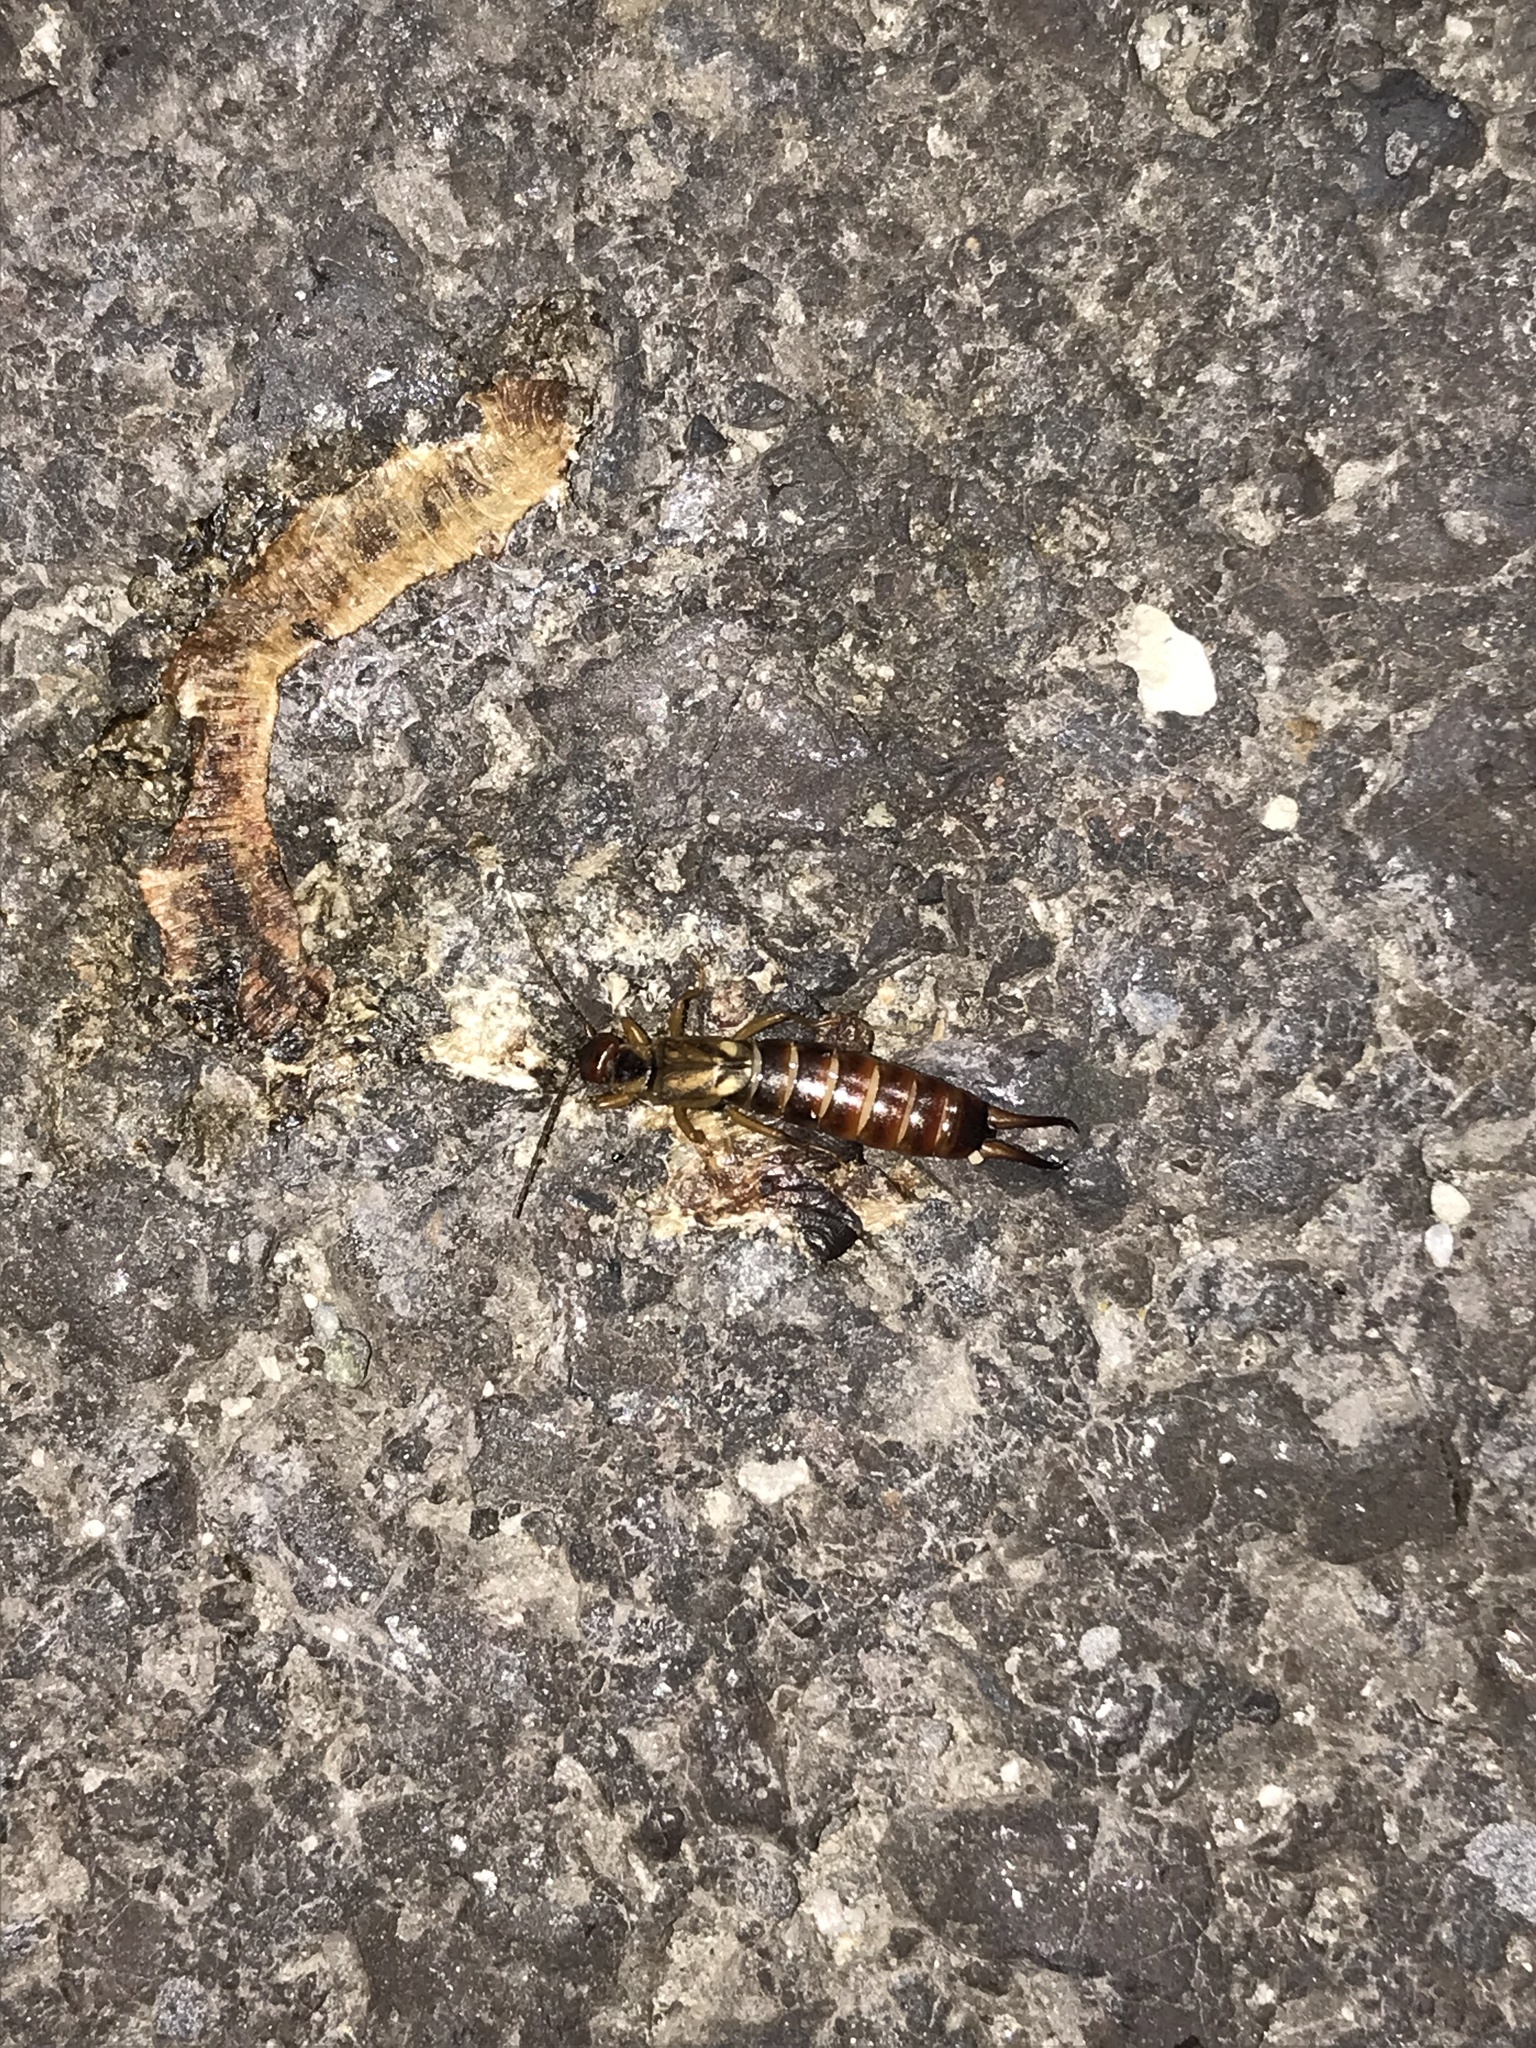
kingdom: Animalia
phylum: Arthropoda
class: Insecta
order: Dermaptera
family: Forficulidae
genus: Forficula
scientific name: Forficula
